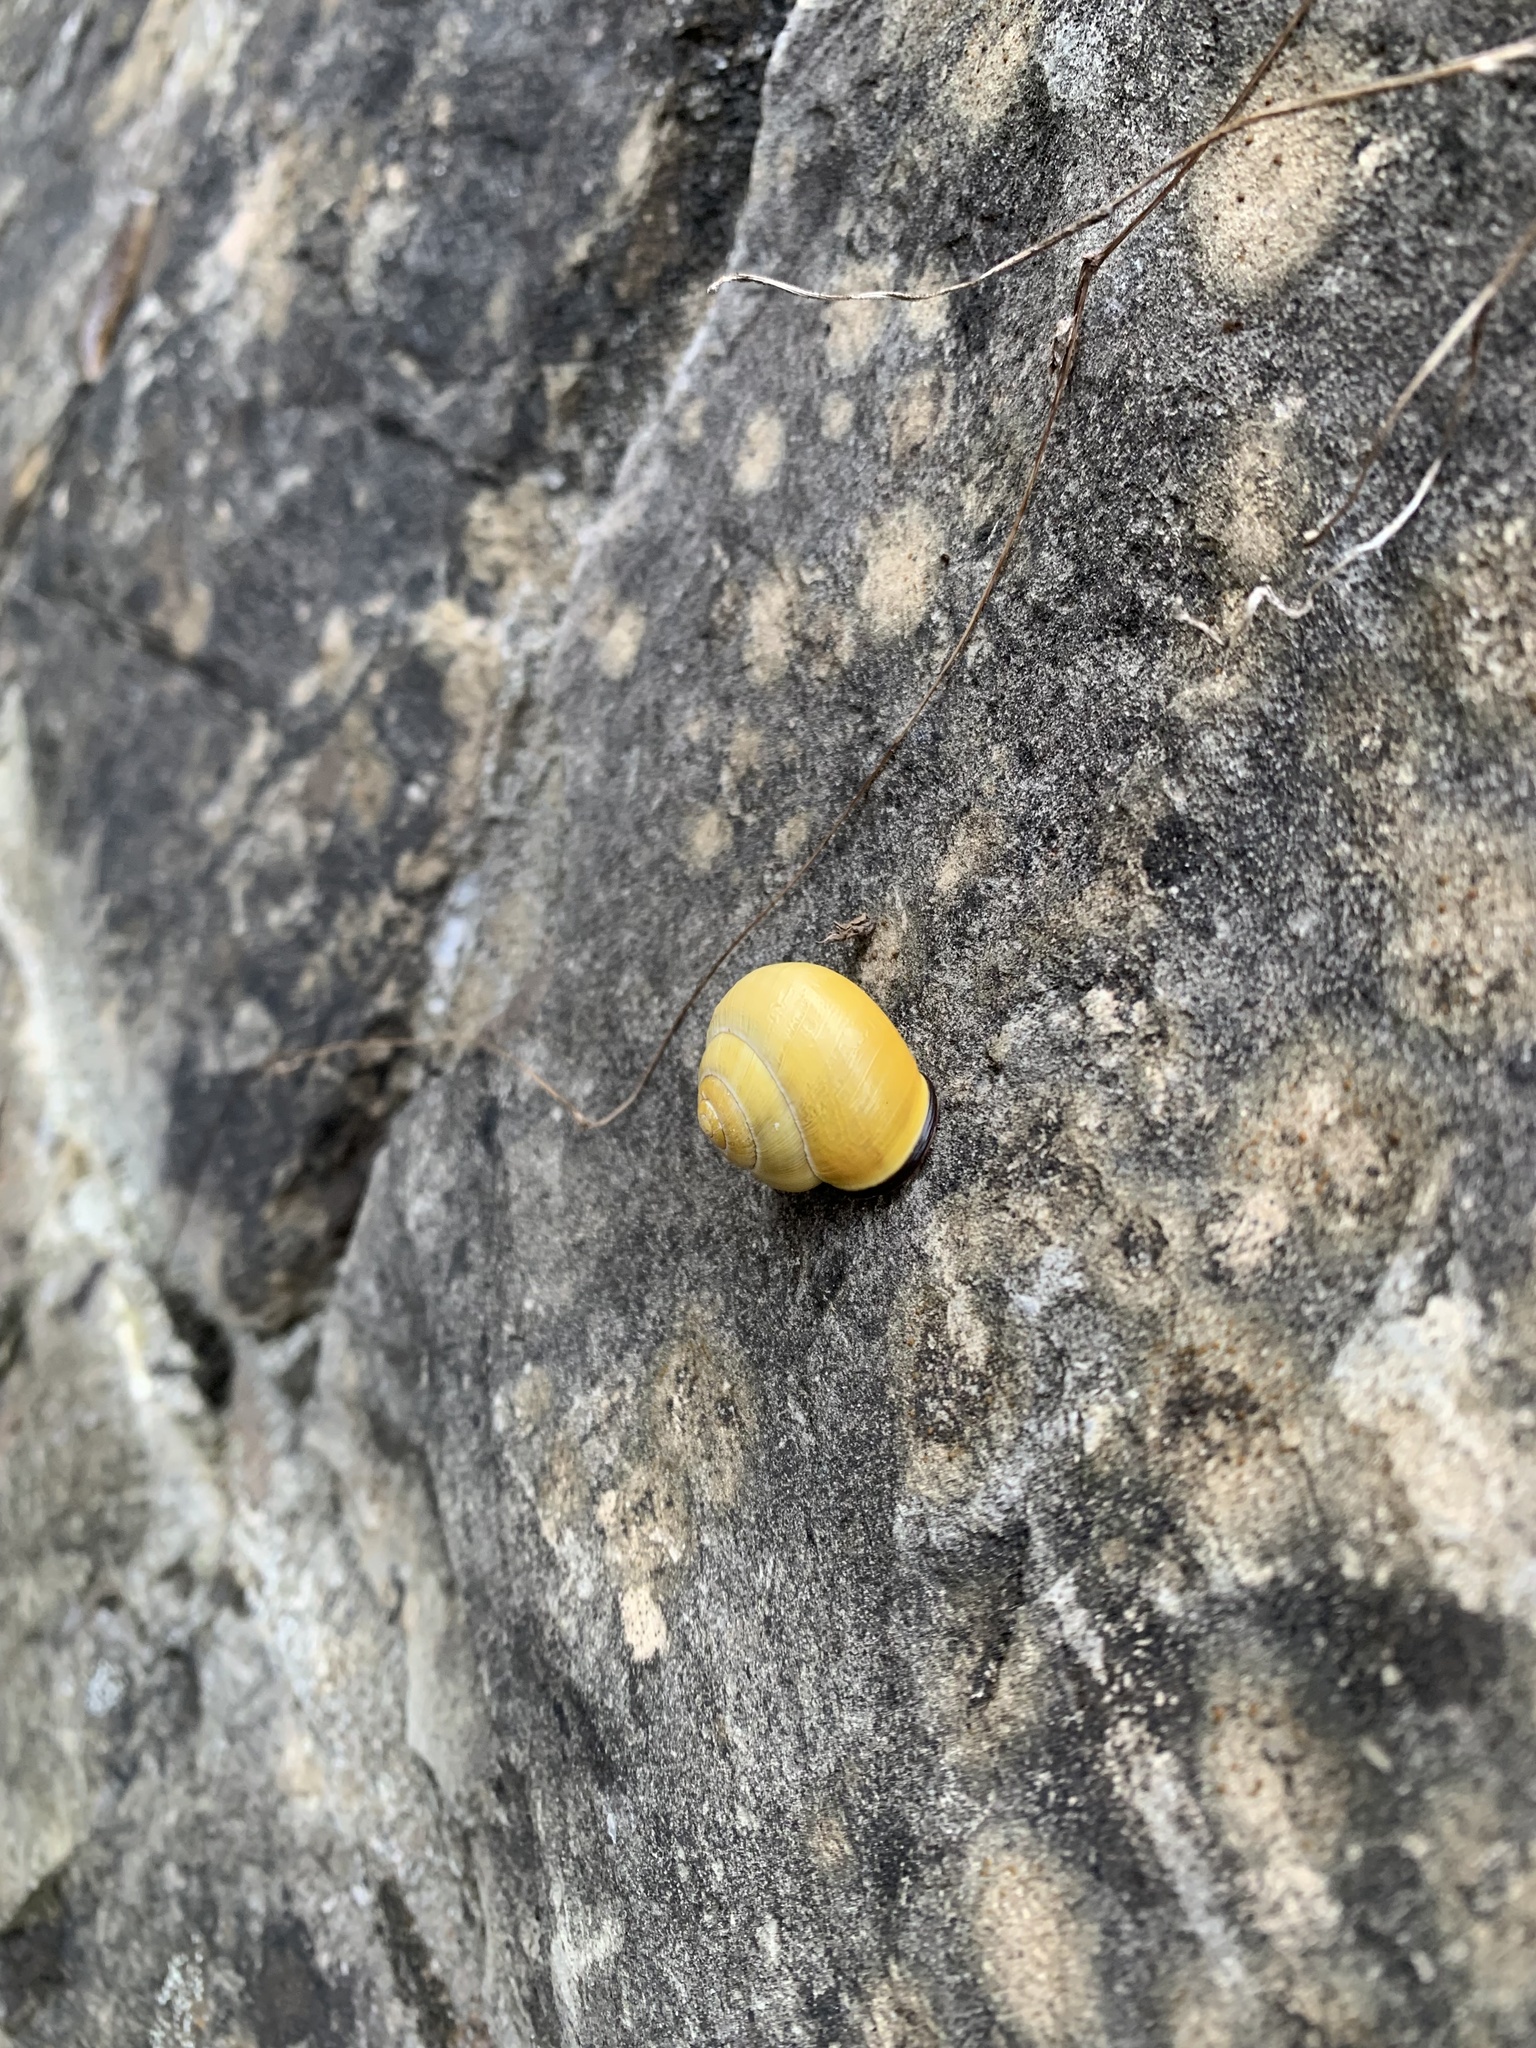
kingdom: Animalia
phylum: Mollusca
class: Gastropoda
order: Stylommatophora
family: Helicidae
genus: Cepaea
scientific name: Cepaea nemoralis
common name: Grovesnail
